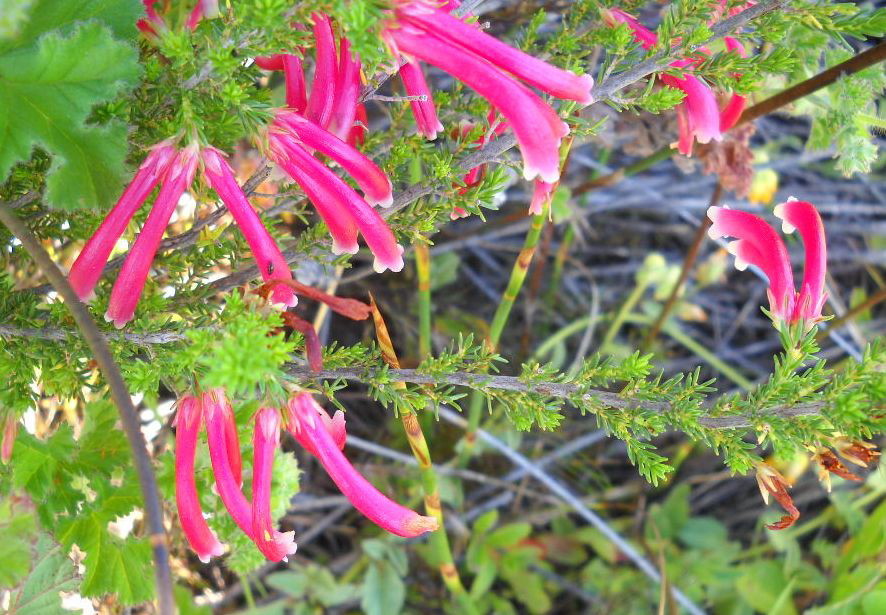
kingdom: Plantae
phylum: Tracheophyta
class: Magnoliopsida
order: Ericales
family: Ericaceae
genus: Erica
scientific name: Erica discolor
